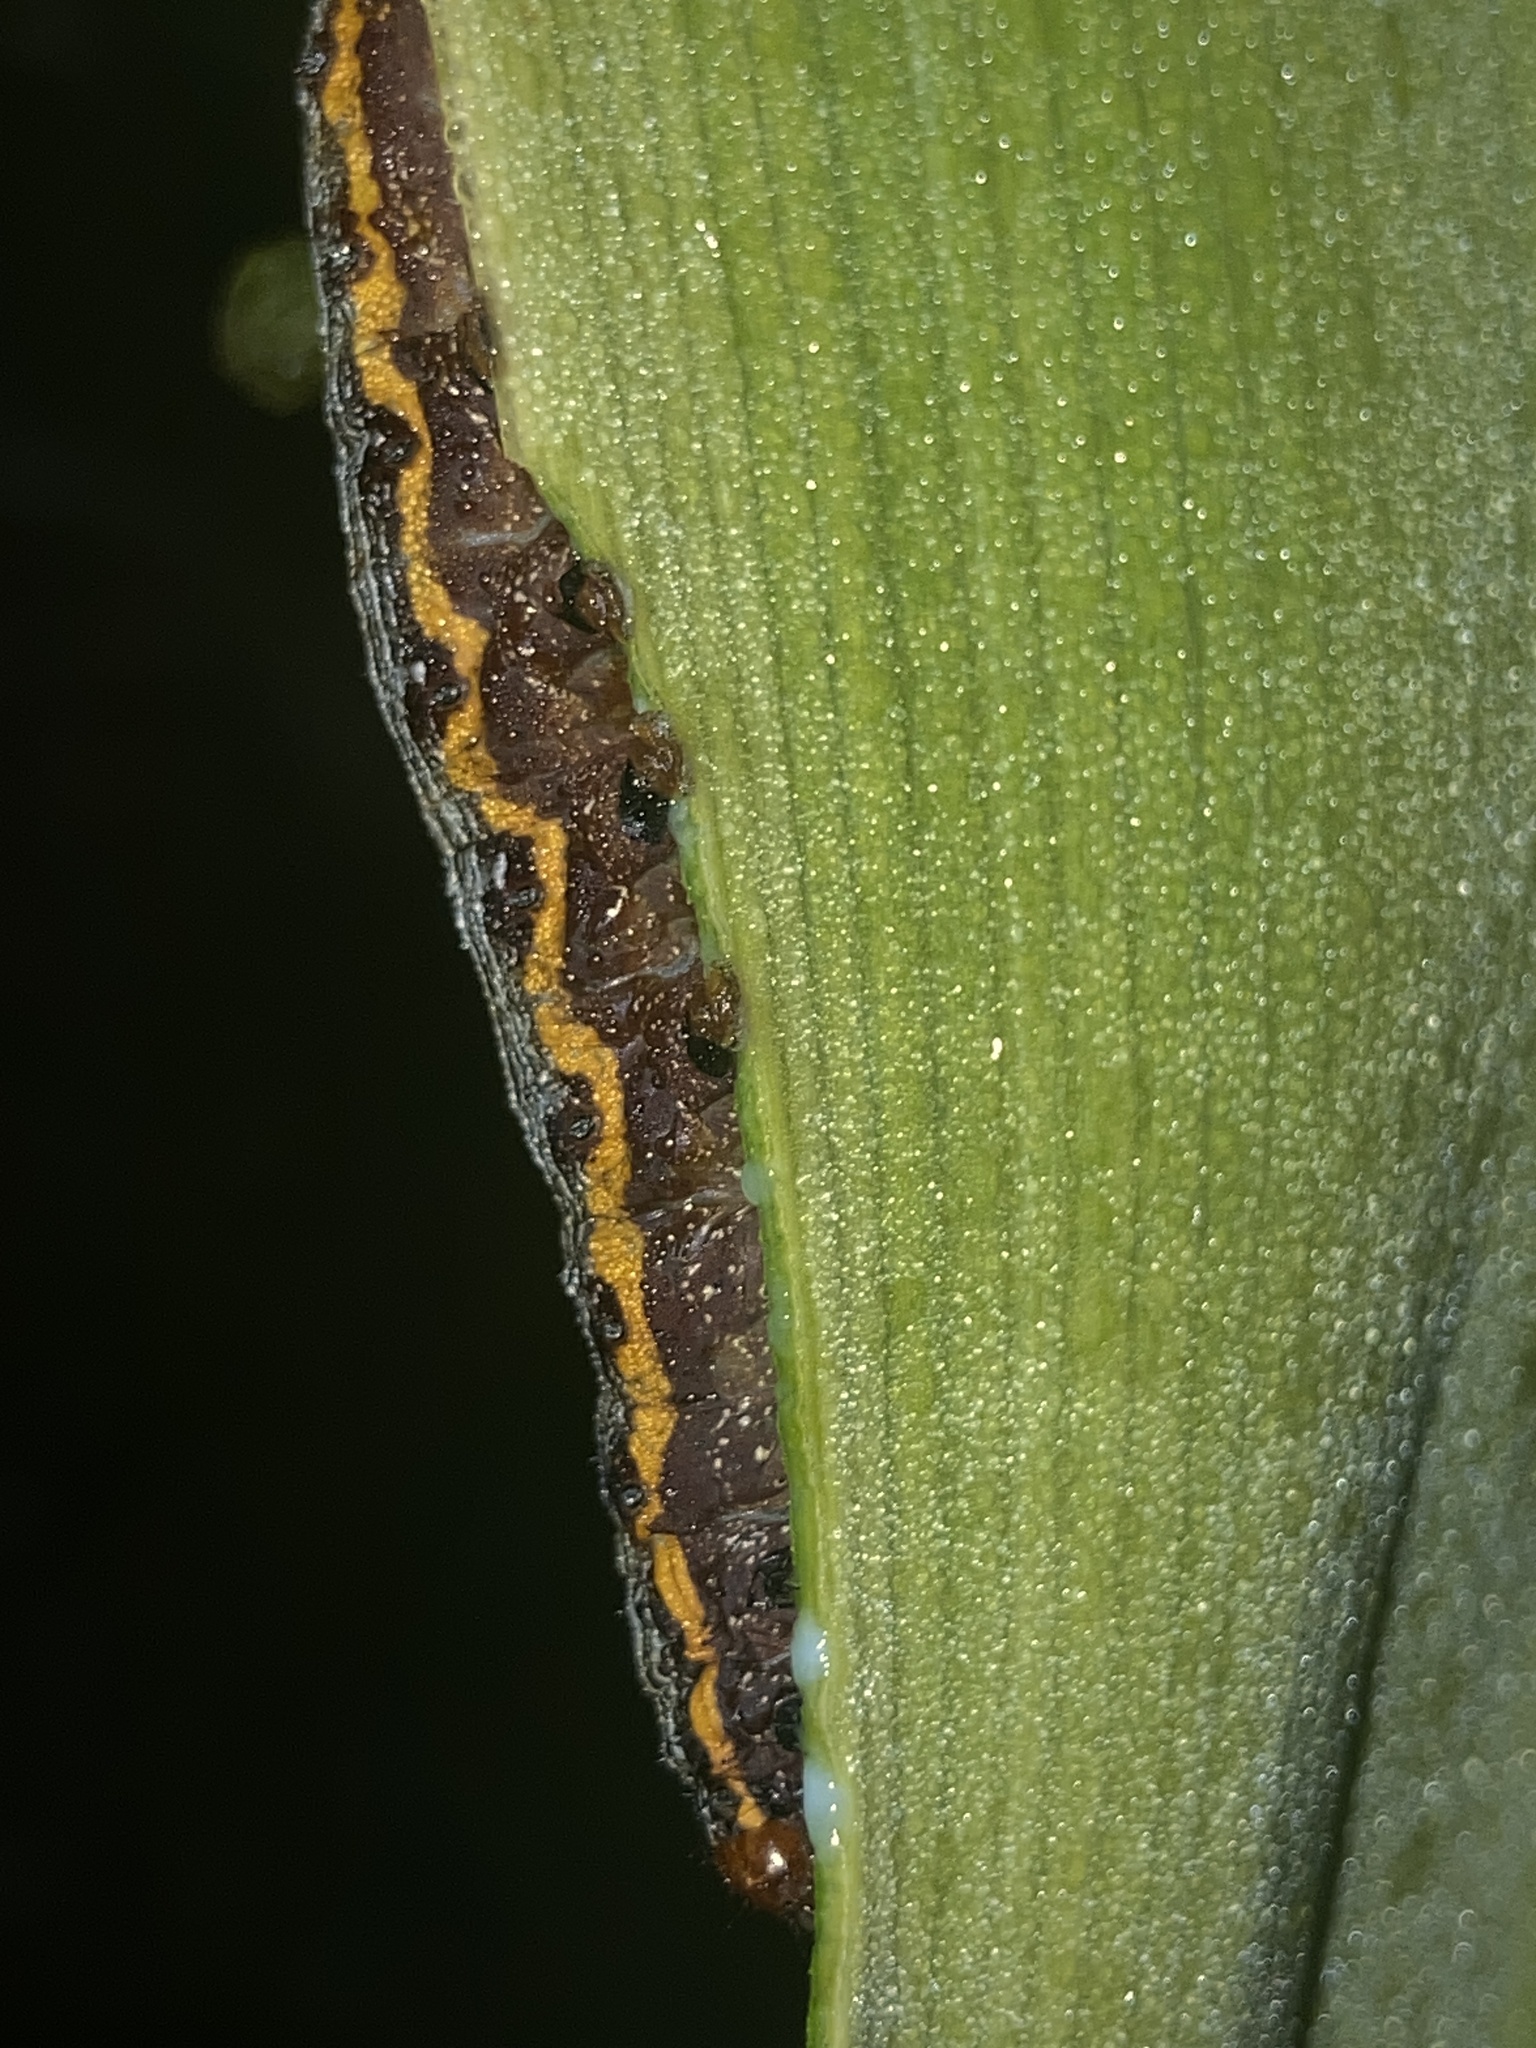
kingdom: Animalia
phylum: Arthropoda
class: Insecta
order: Lepidoptera
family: Noctuidae
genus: Spodoptera
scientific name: Spodoptera picta
